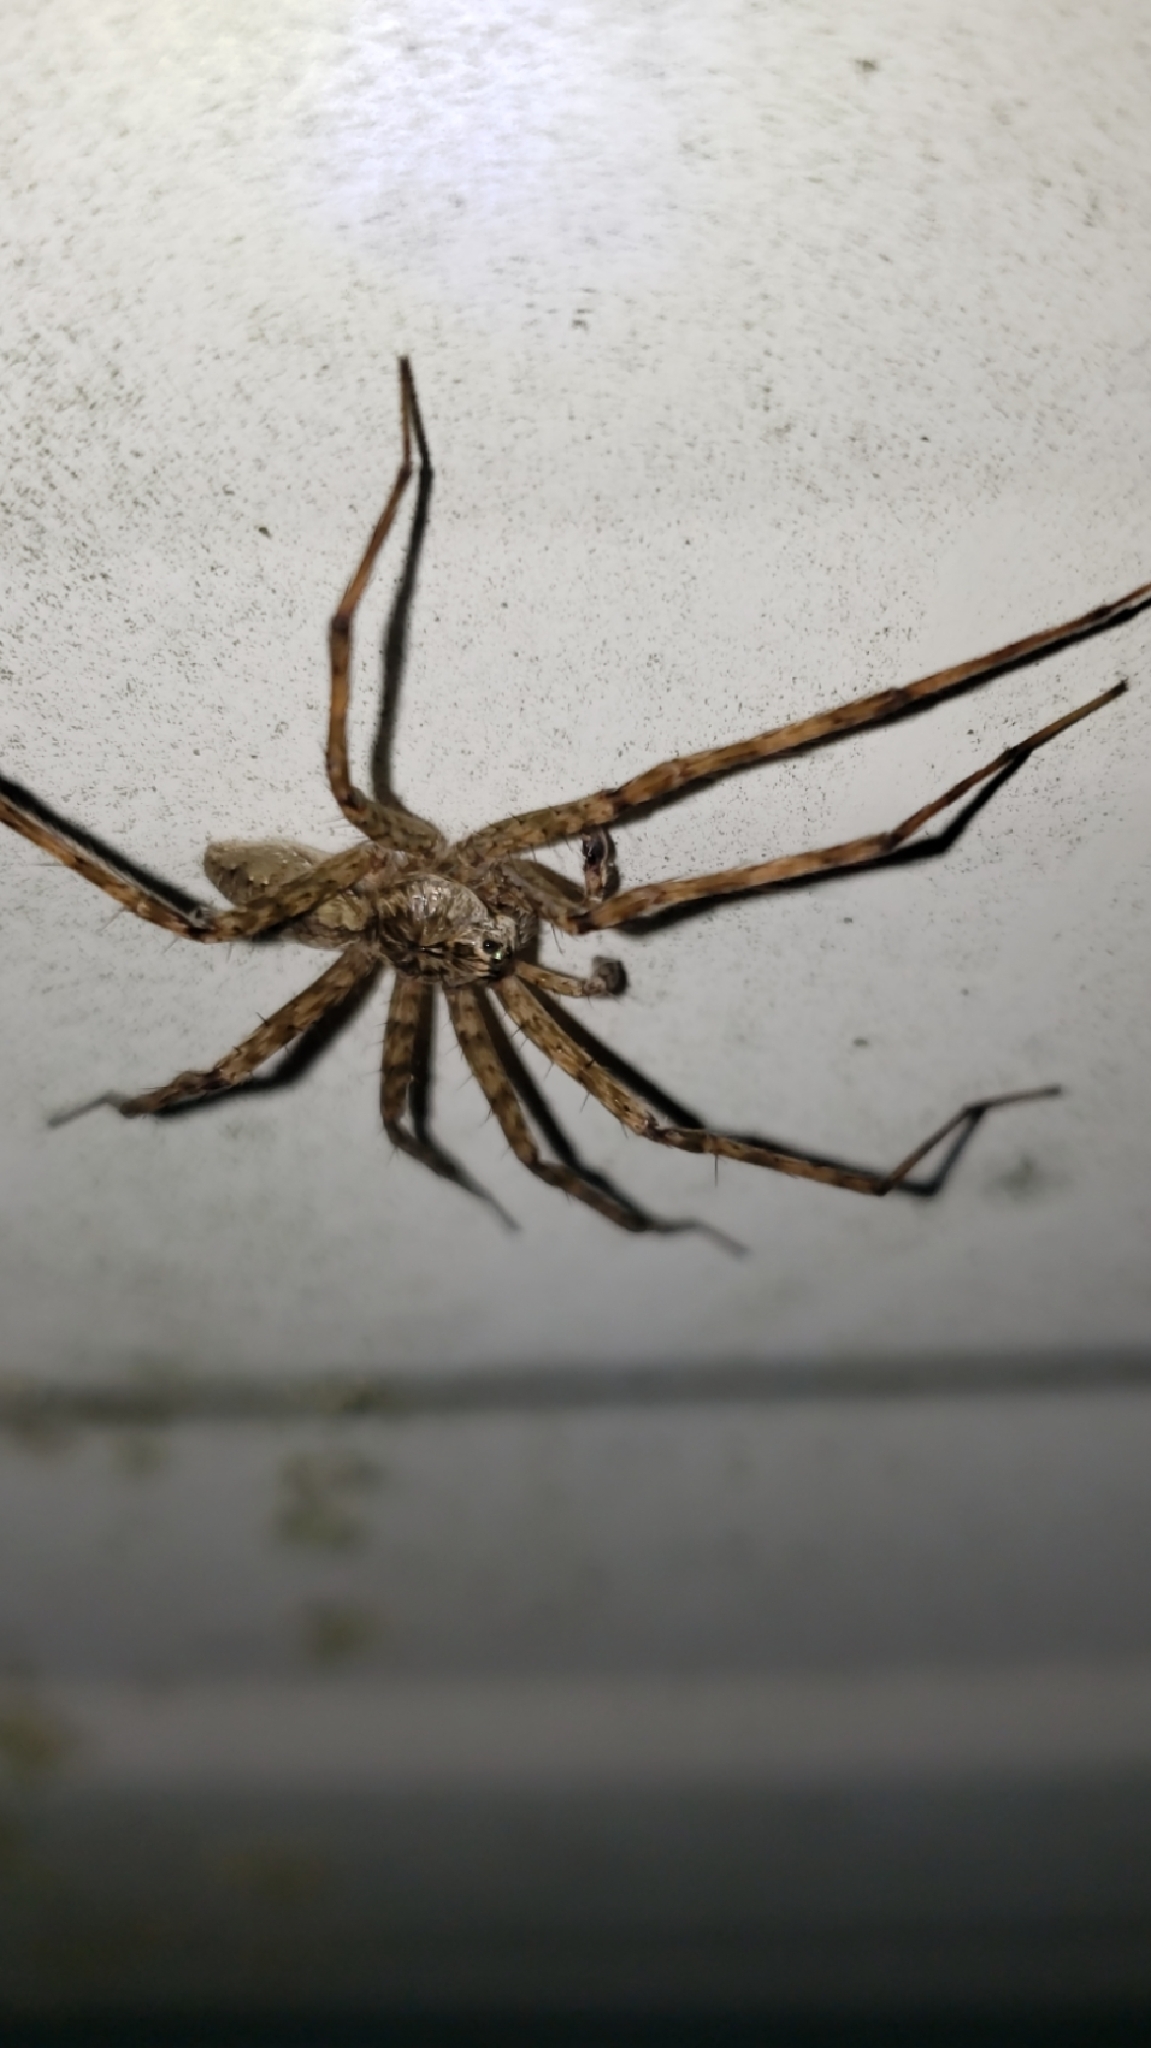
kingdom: Animalia
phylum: Arthropoda
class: Arachnida
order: Araneae
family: Pisauridae
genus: Dolomedes
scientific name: Dolomedes albineus
